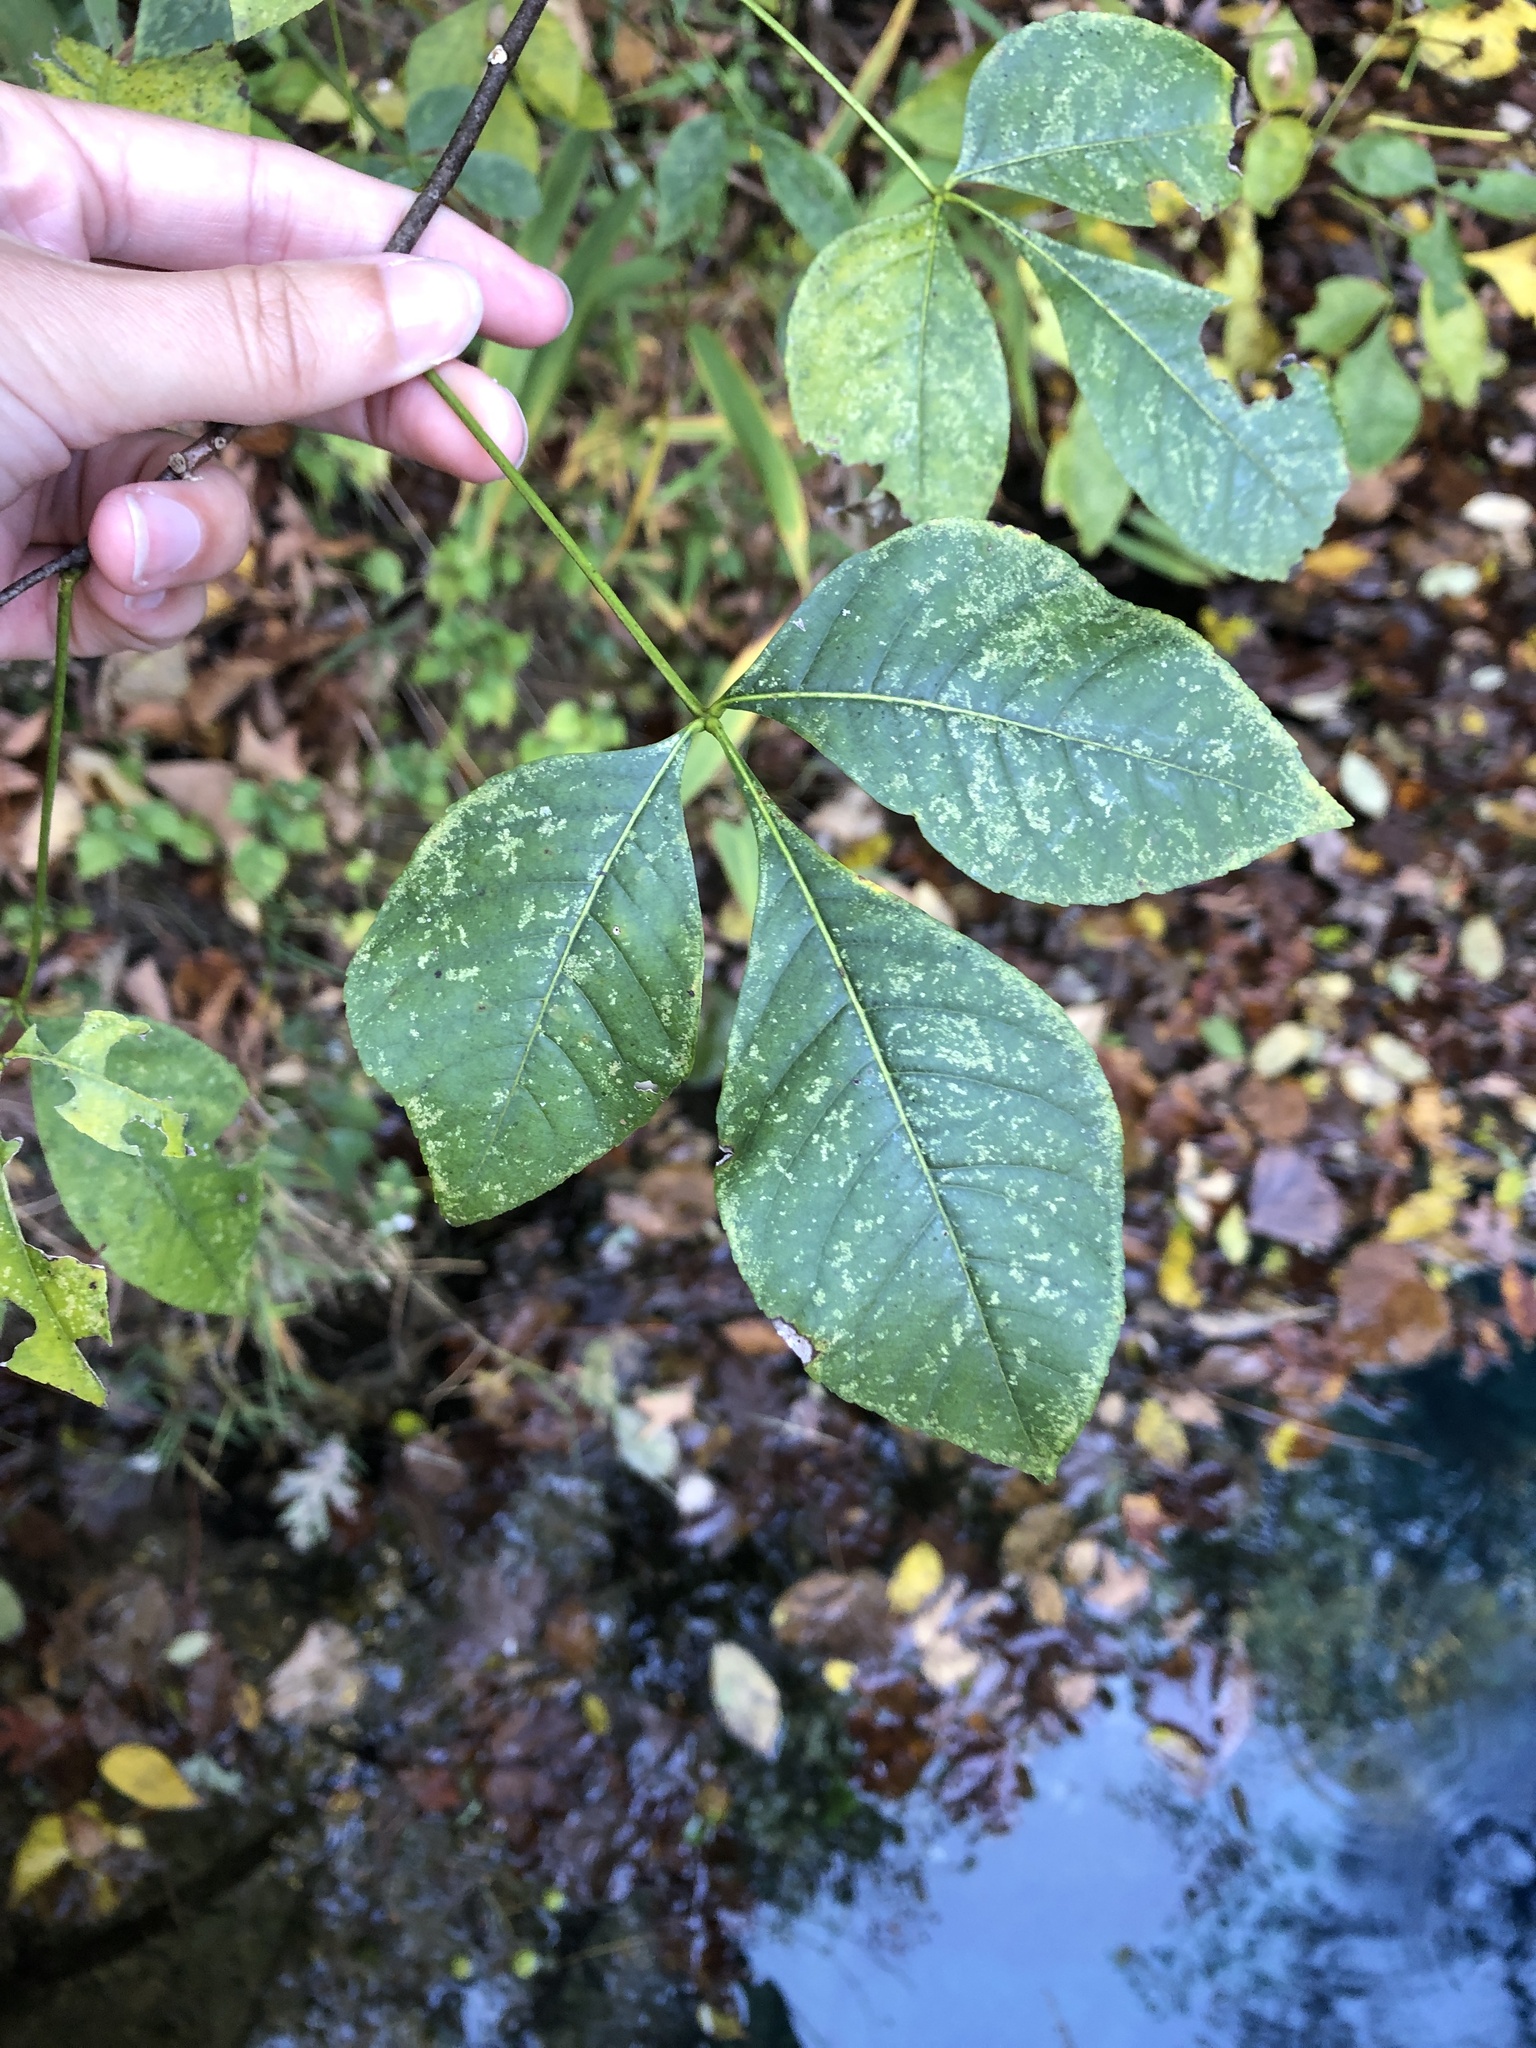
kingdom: Plantae
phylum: Tracheophyta
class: Magnoliopsida
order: Sapindales
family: Rutaceae
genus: Ptelea
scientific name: Ptelea trifoliata
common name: Common hop-tree
